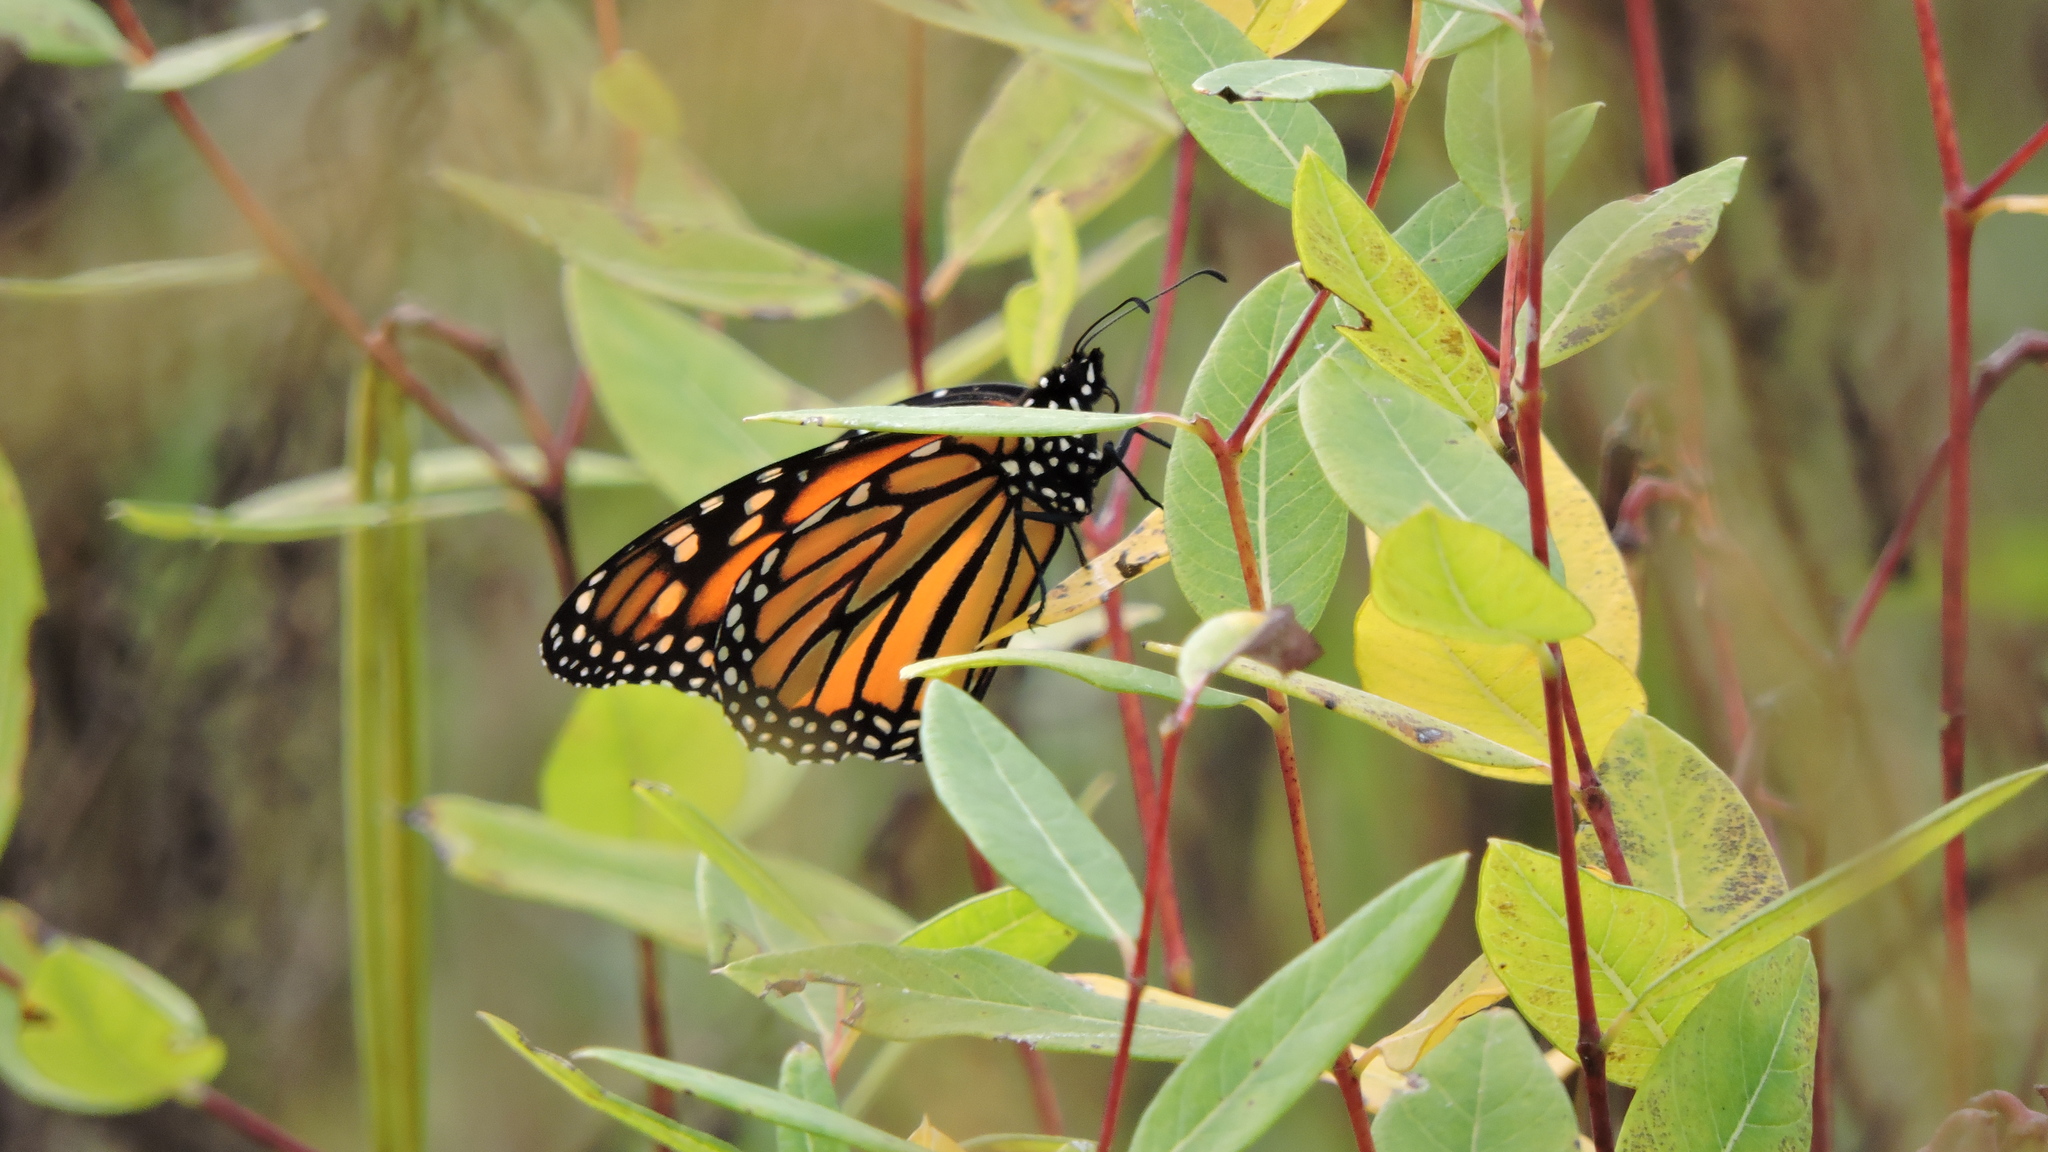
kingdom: Animalia
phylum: Arthropoda
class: Insecta
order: Lepidoptera
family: Nymphalidae
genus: Danaus
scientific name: Danaus plexippus
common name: Monarch
